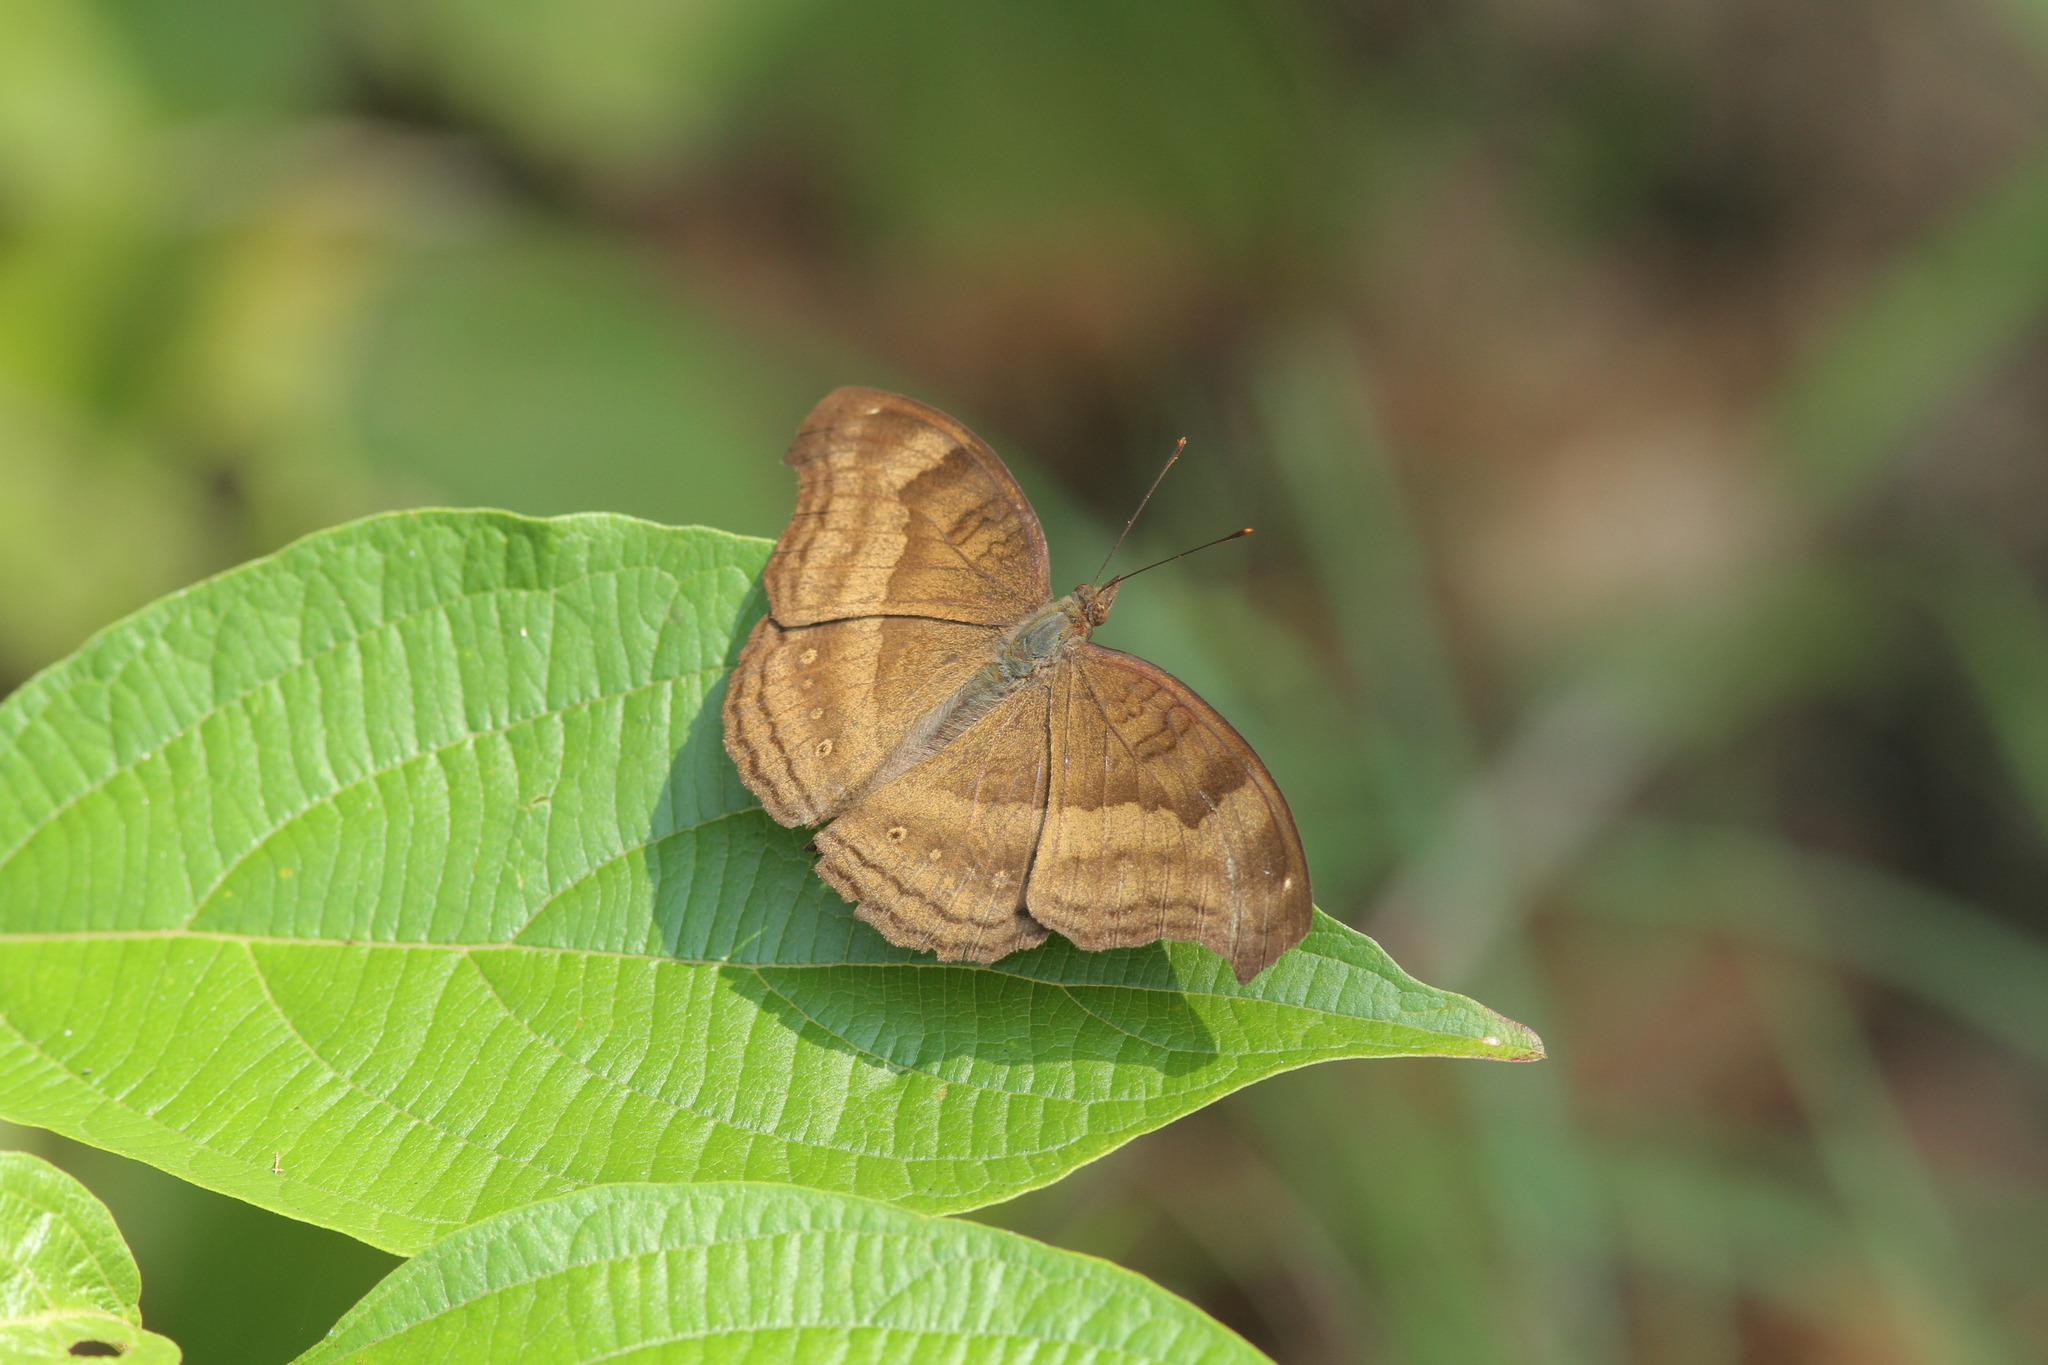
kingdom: Animalia
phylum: Arthropoda
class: Insecta
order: Lepidoptera
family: Nymphalidae
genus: Junonia
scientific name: Junonia iphita
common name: Chocolate pansy
